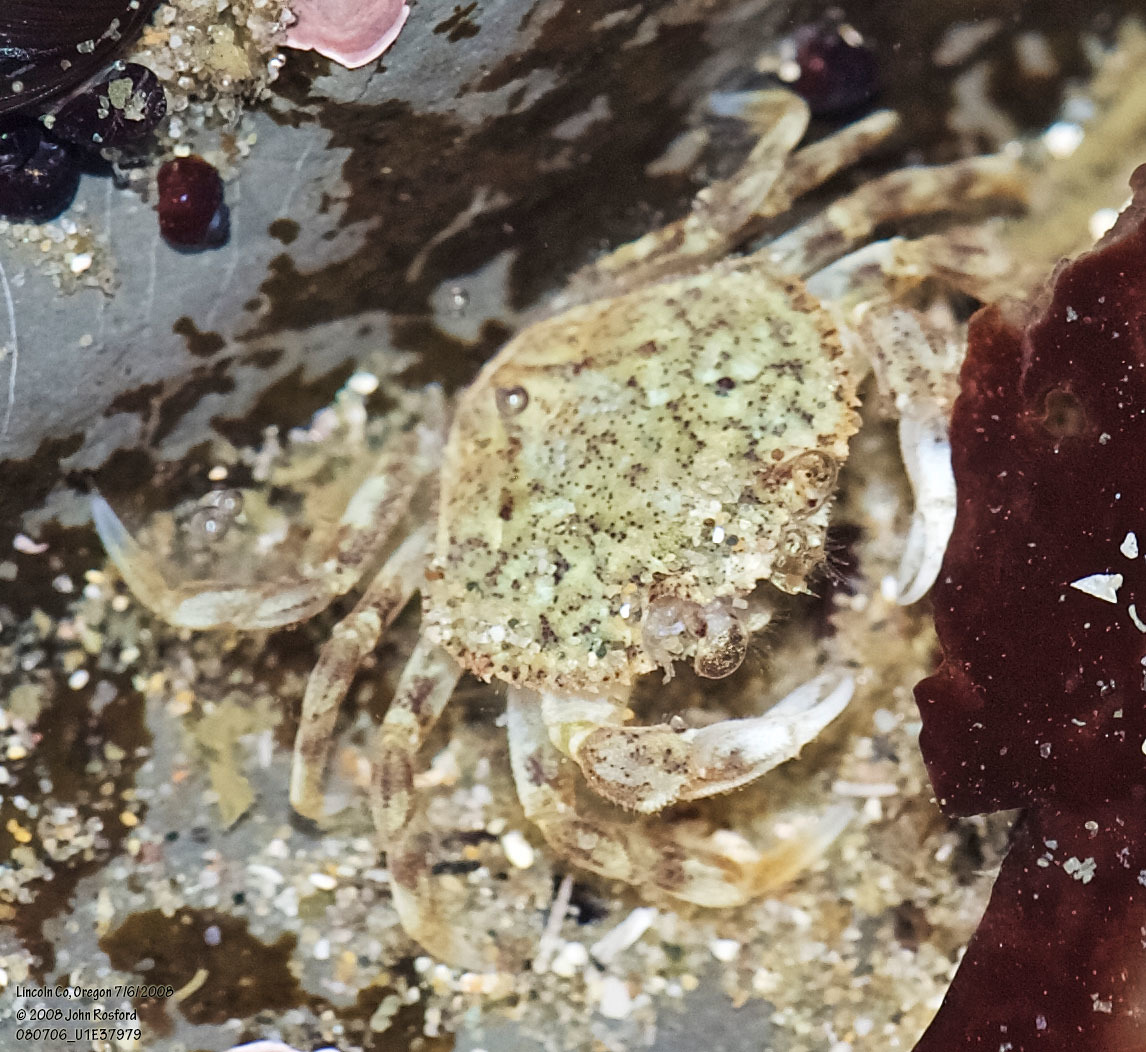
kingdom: Animalia
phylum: Arthropoda
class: Malacostraca
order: Decapoda
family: Cancridae
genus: Metacarcinus
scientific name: Metacarcinus magister
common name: Californian crab
